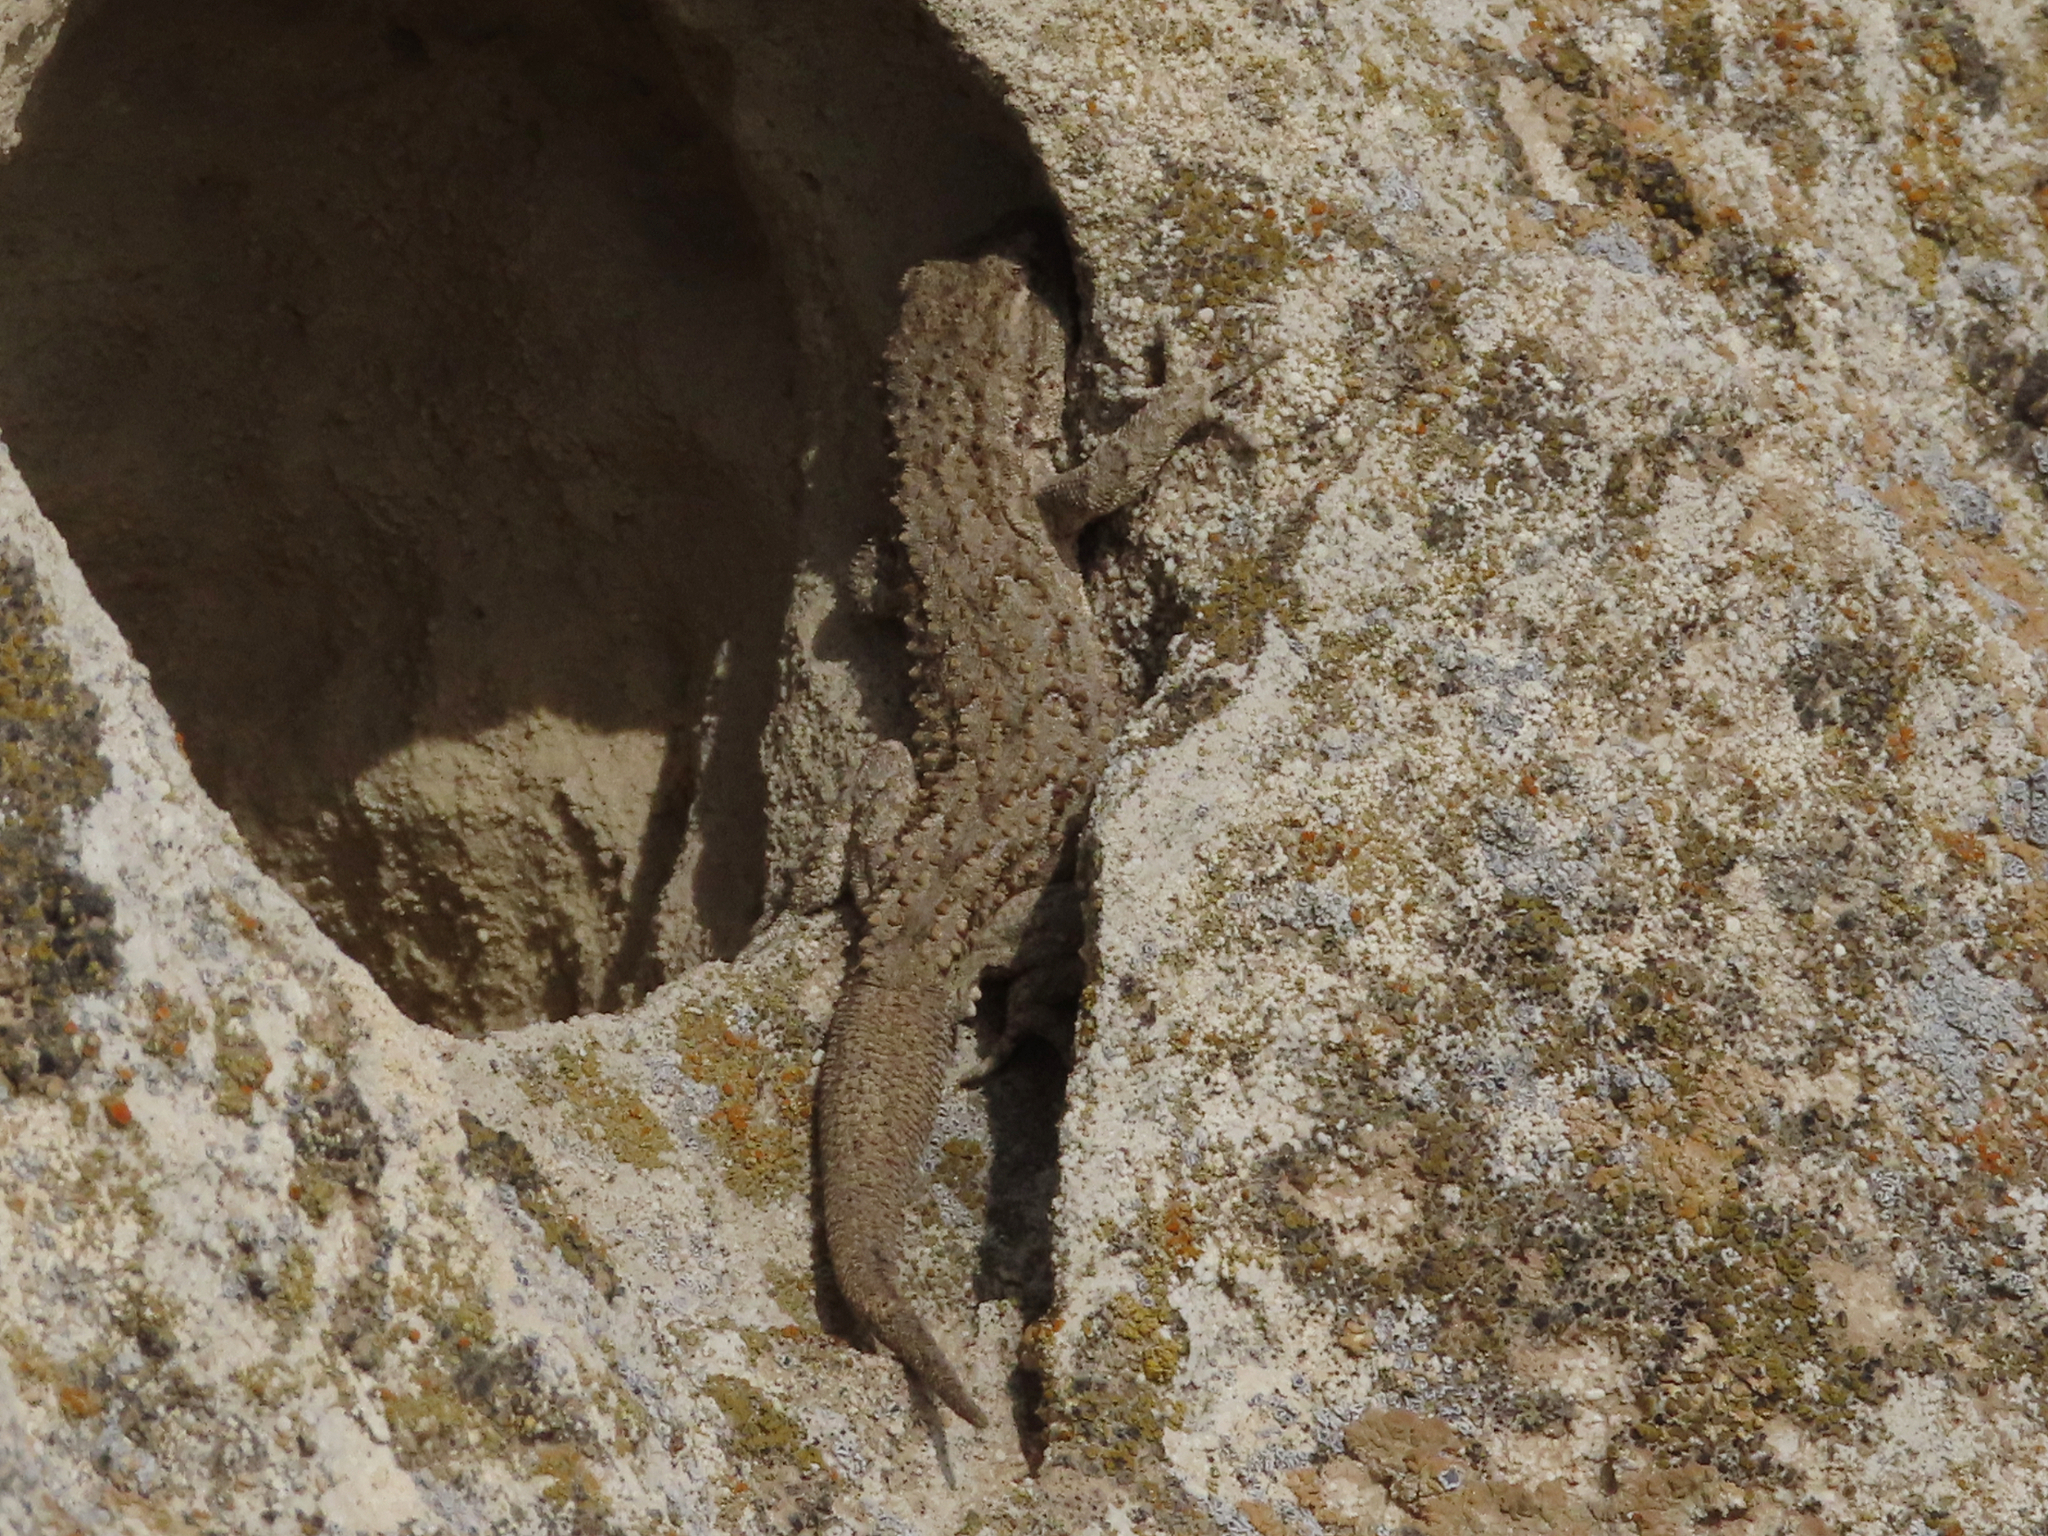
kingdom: Animalia
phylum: Chordata
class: Squamata
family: Gekkonidae
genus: Mediodactylus
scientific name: Mediodactylus russowii
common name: Grey thin-toed gecko
